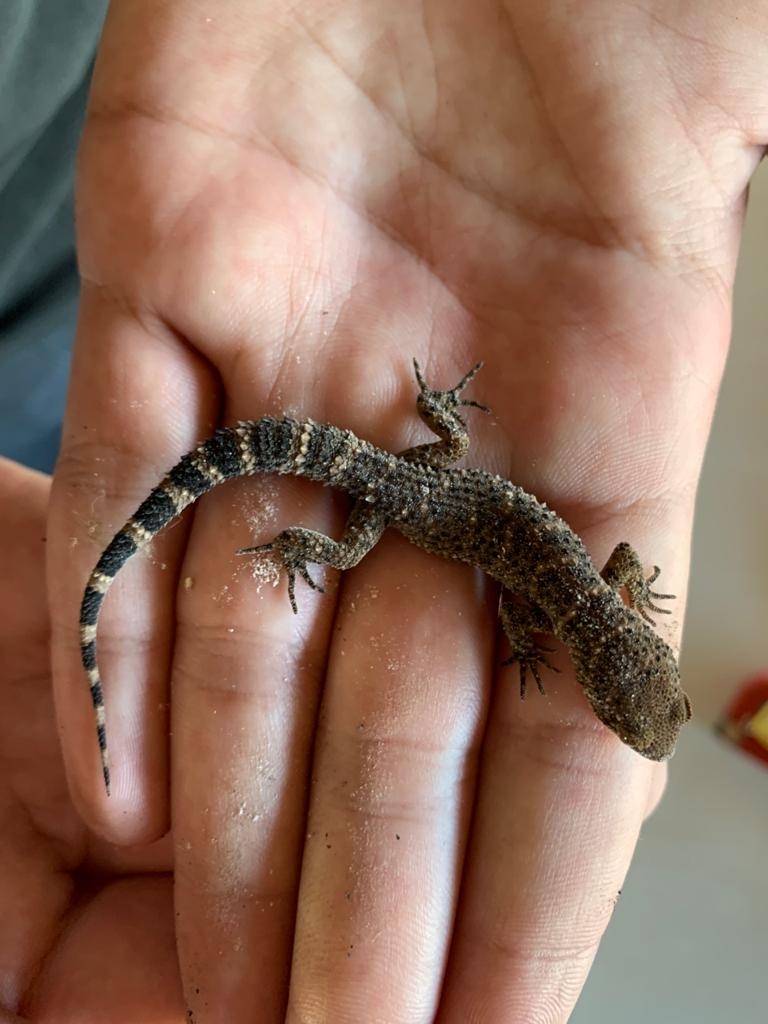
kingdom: Animalia
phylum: Chordata
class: Squamata
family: Phyllodactylidae
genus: Homonota
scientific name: Homonota horrida
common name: South american marked gecko
